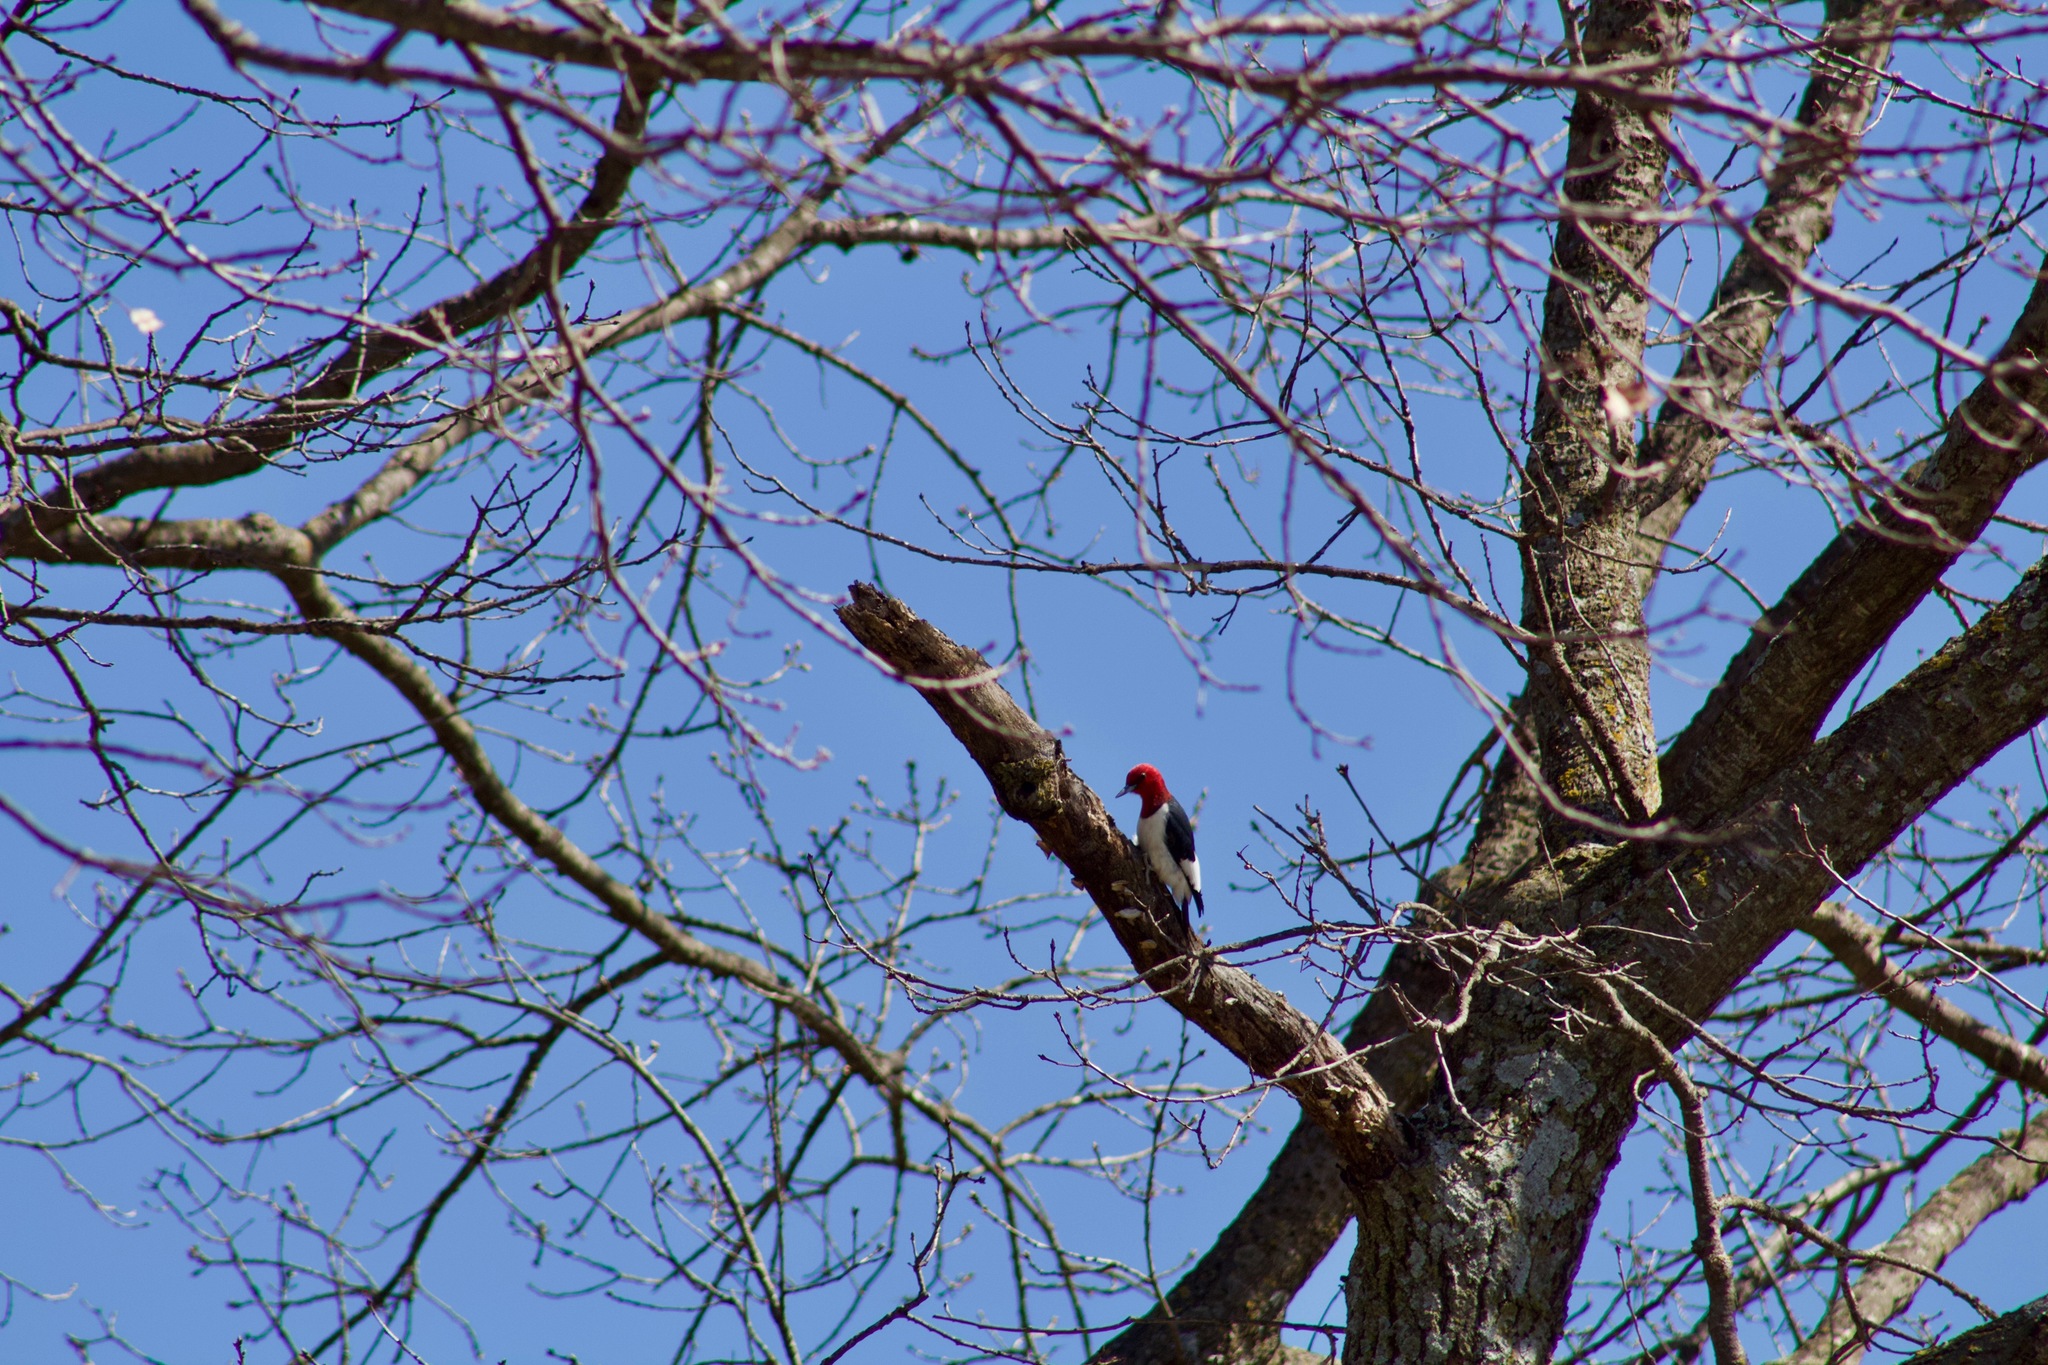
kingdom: Animalia
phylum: Chordata
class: Aves
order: Piciformes
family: Picidae
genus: Melanerpes
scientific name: Melanerpes erythrocephalus
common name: Red-headed woodpecker
